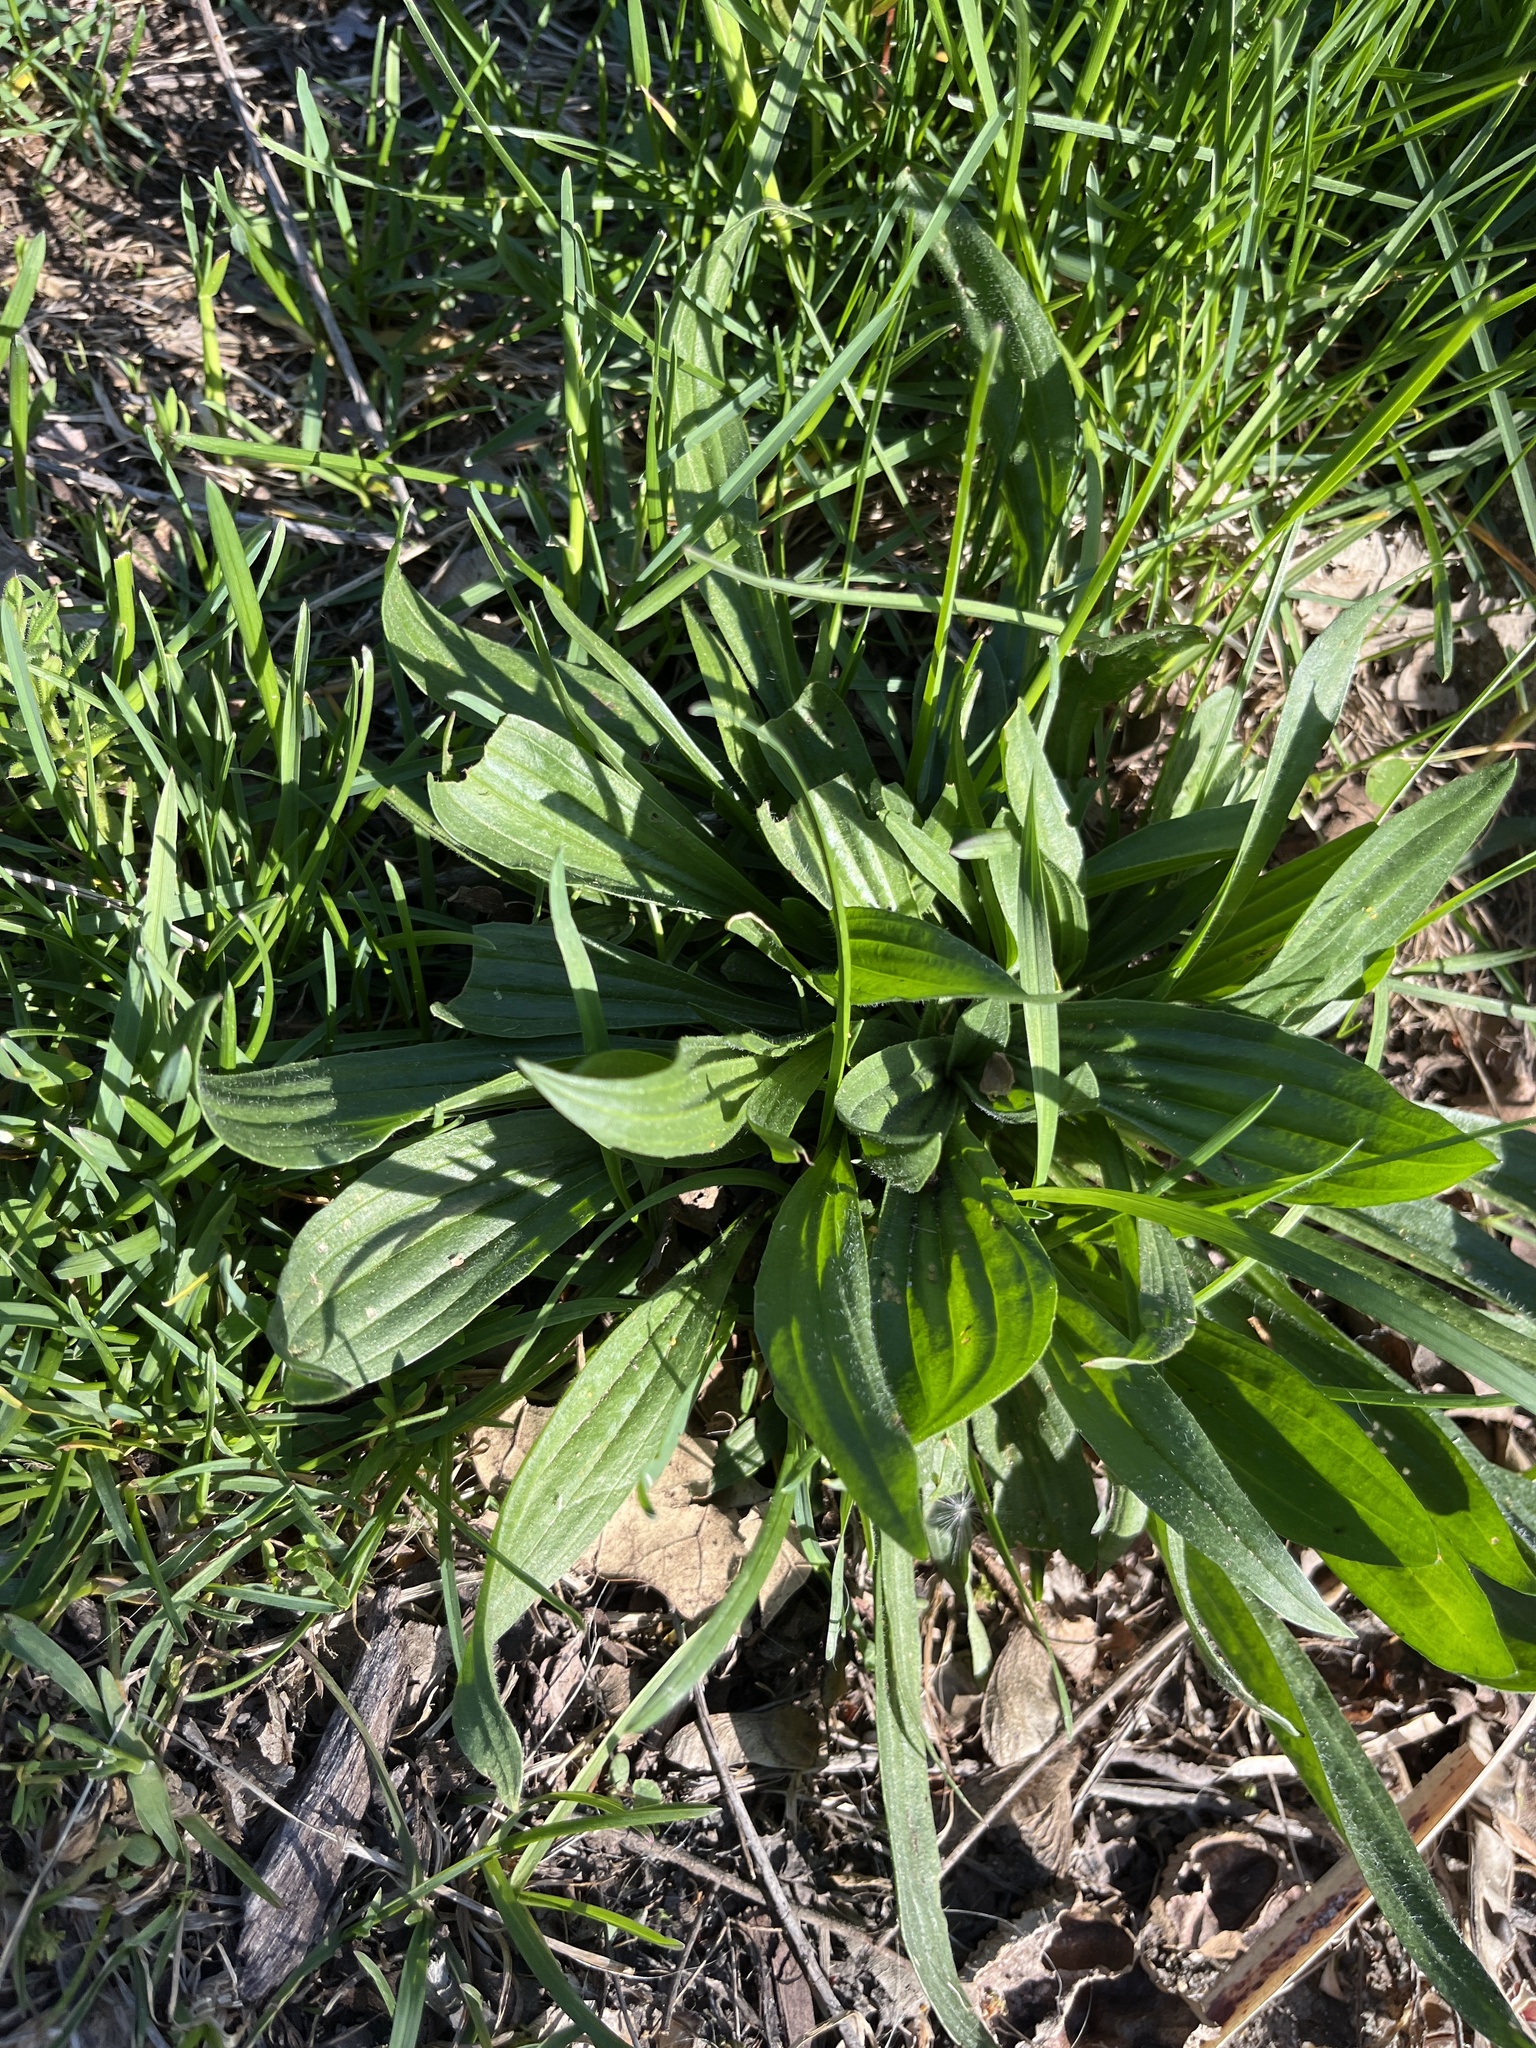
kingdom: Plantae
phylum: Tracheophyta
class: Magnoliopsida
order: Lamiales
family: Plantaginaceae
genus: Plantago
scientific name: Plantago lanceolata
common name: Ribwort plantain
